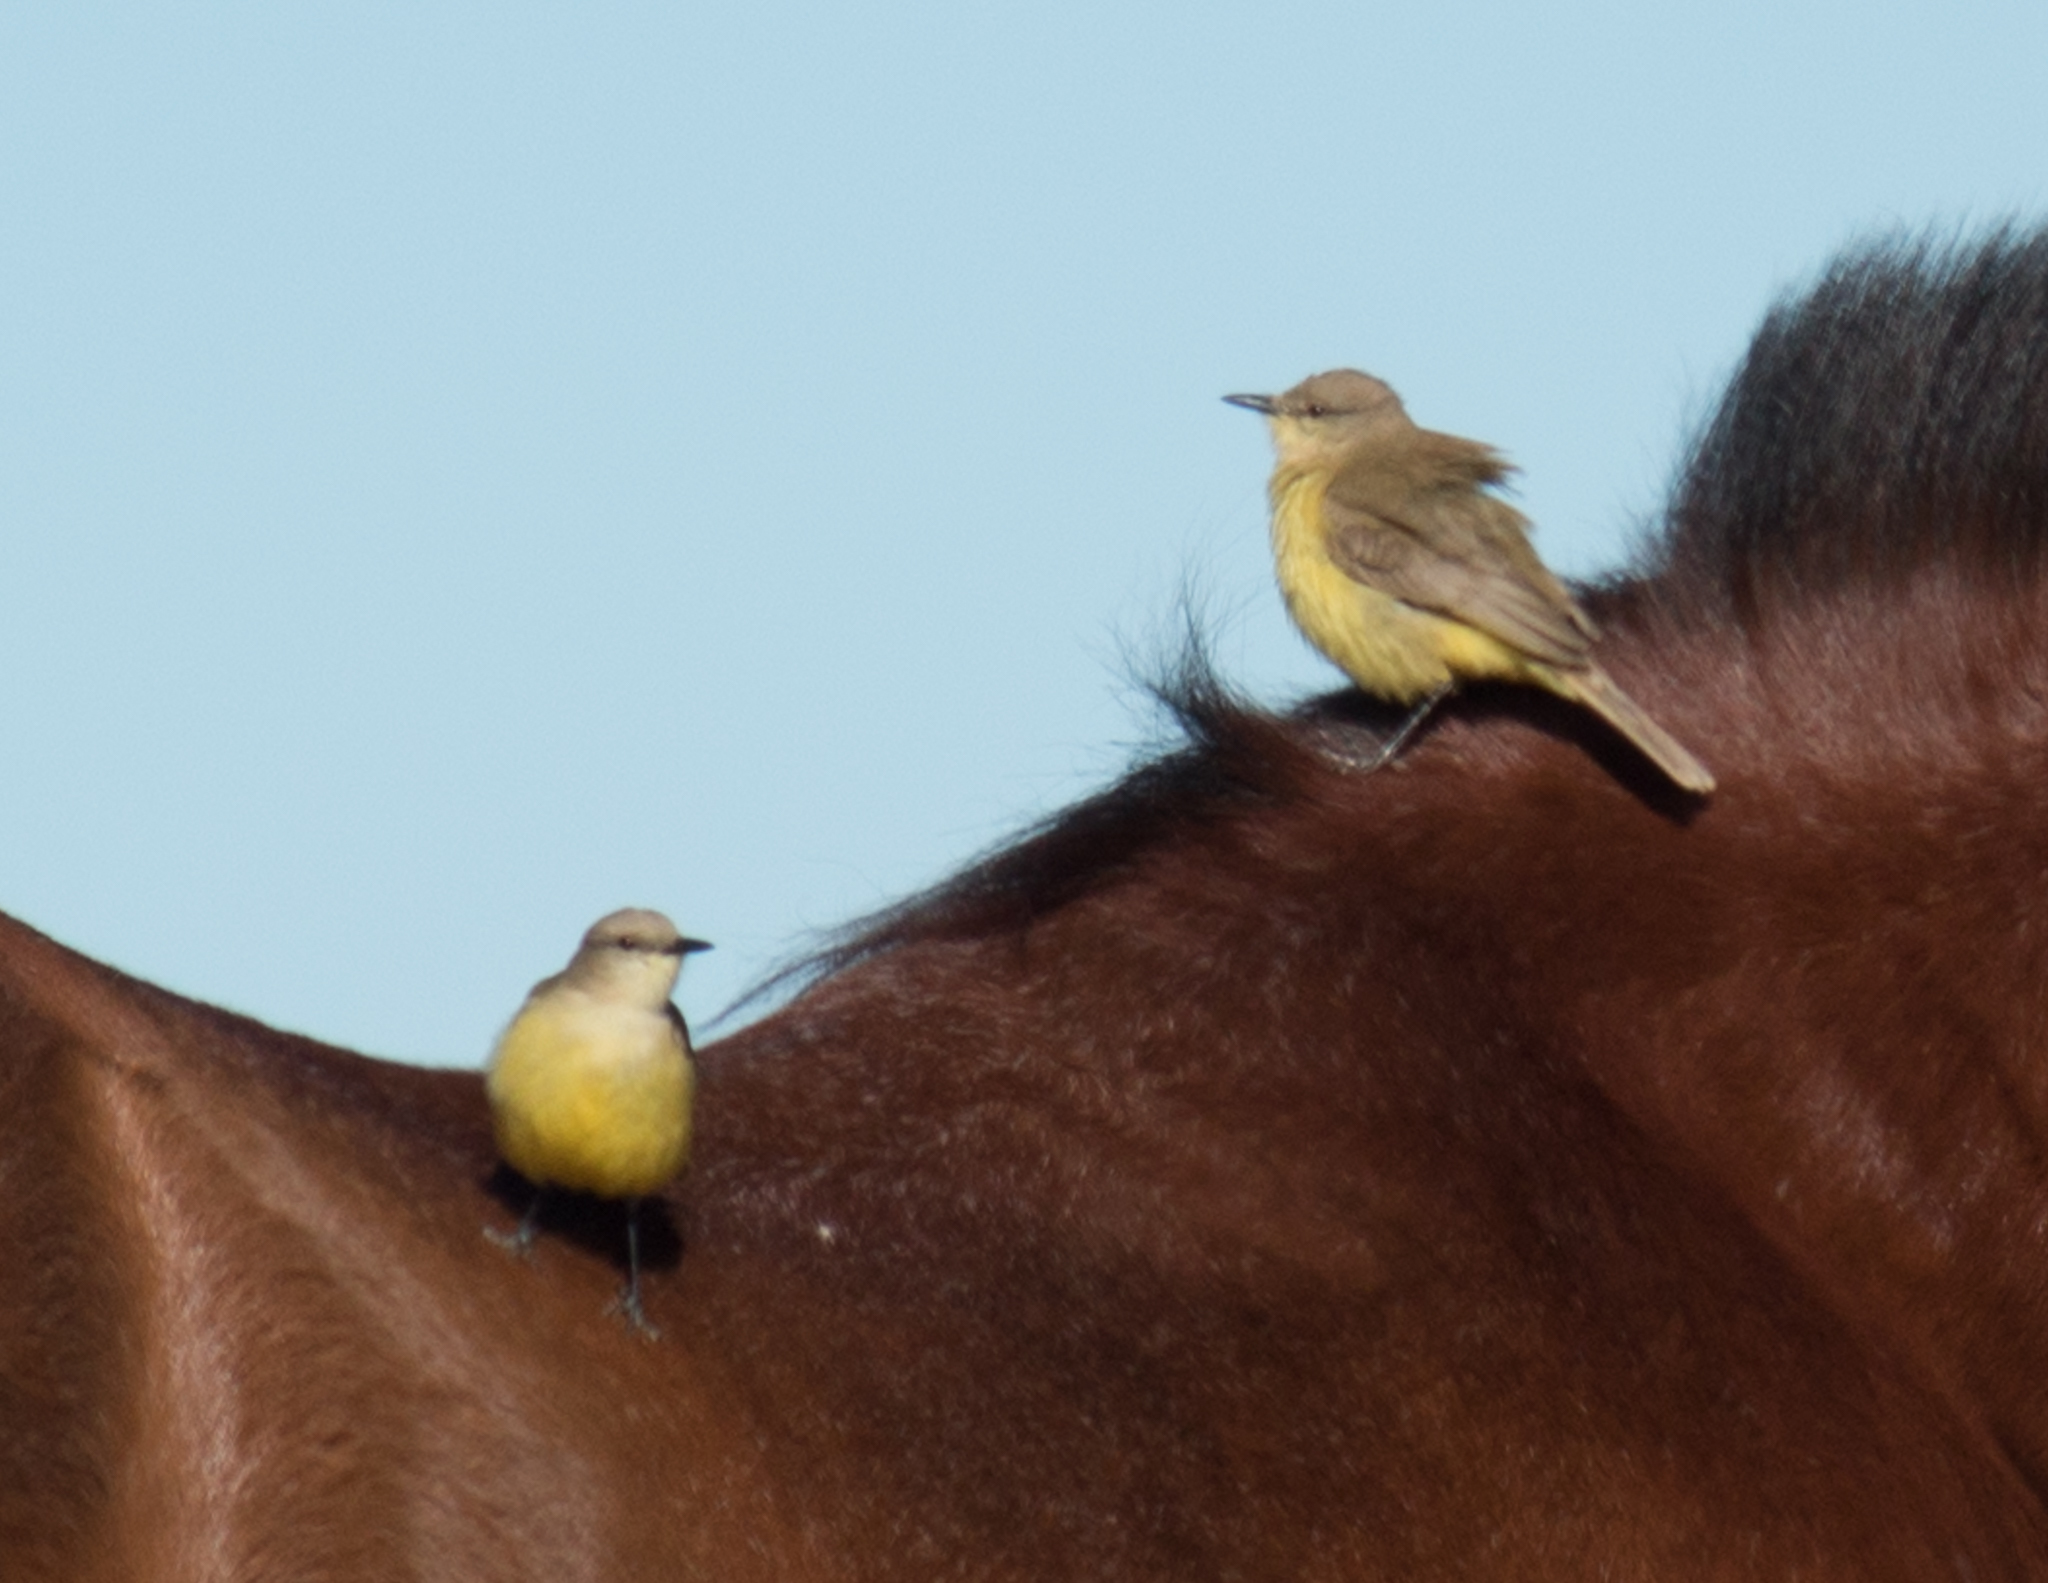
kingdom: Animalia
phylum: Chordata
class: Aves
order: Passeriformes
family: Tyrannidae
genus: Machetornis
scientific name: Machetornis rixosa
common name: Cattle tyrant
